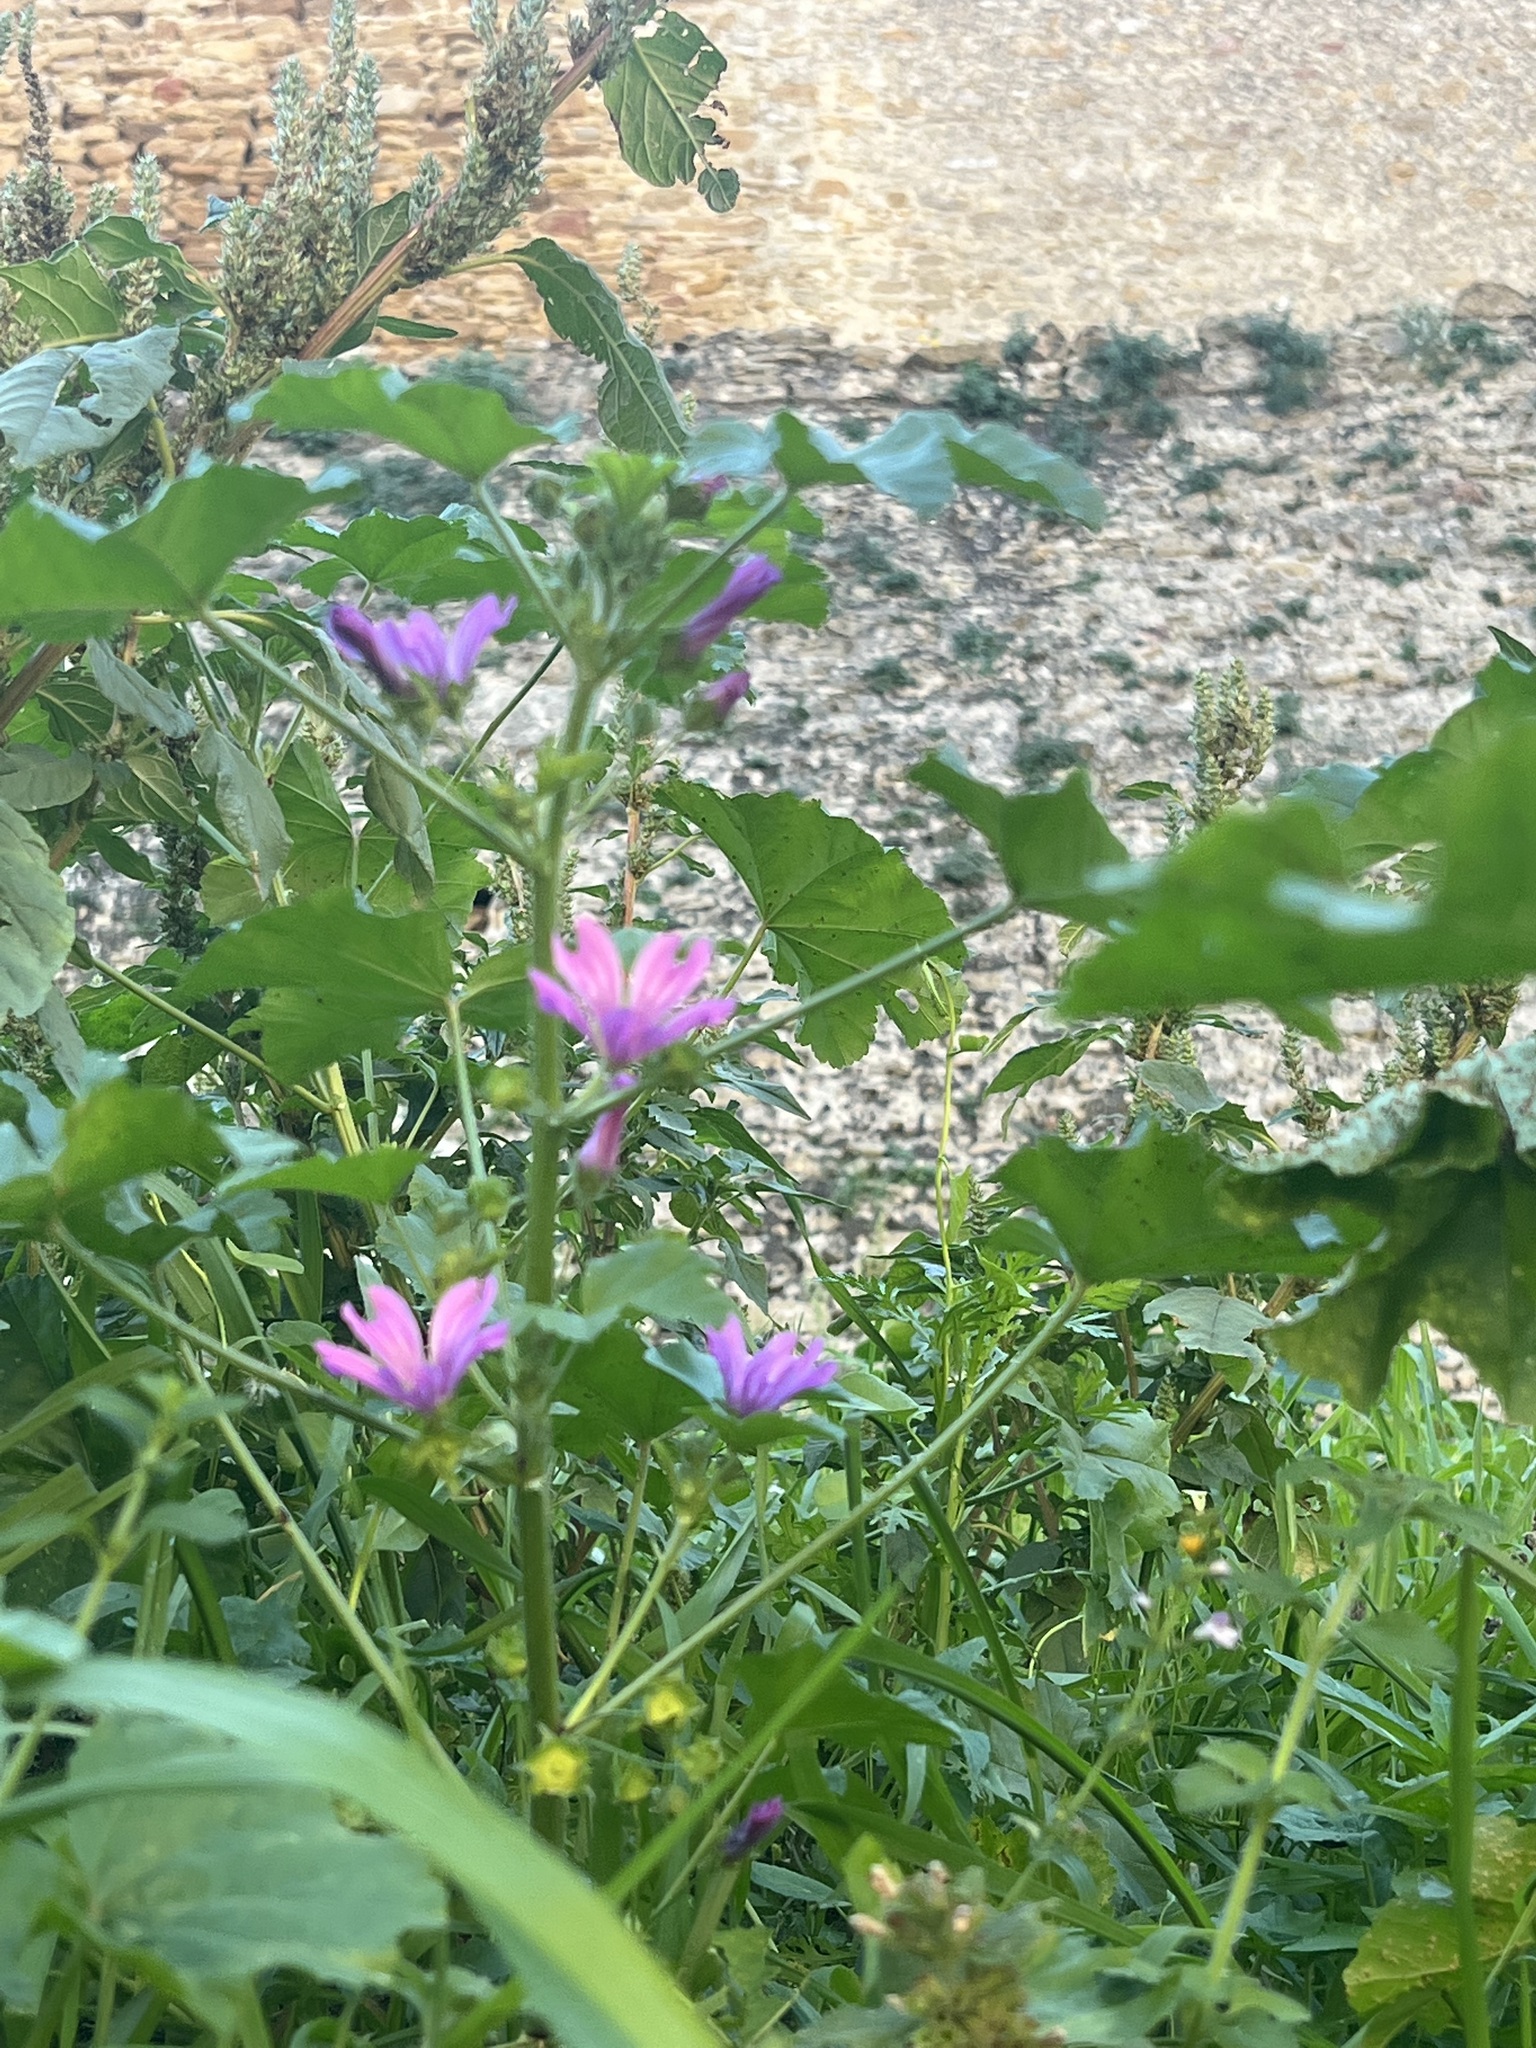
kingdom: Plantae
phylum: Tracheophyta
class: Magnoliopsida
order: Malvales
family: Malvaceae
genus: Malva
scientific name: Malva sylvestris
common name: Common mallow
